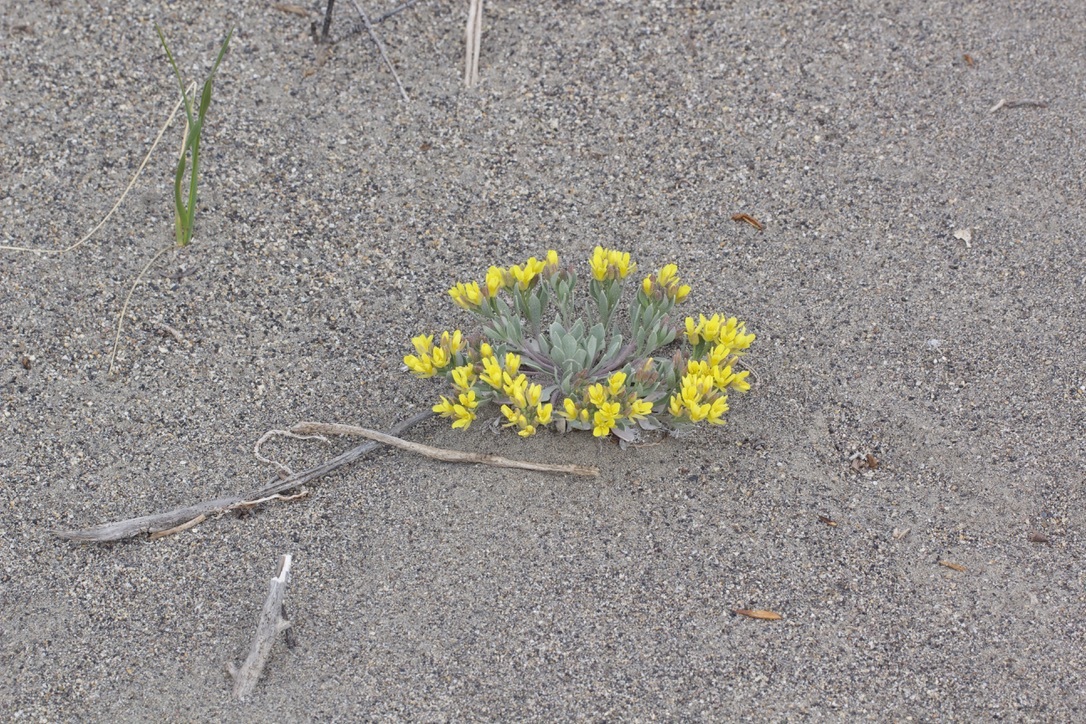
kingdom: Plantae
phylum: Tracheophyta
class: Magnoliopsida
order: Brassicales
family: Brassicaceae
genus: Physaria
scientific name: Physaria didymocarpa
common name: Common twinpod
